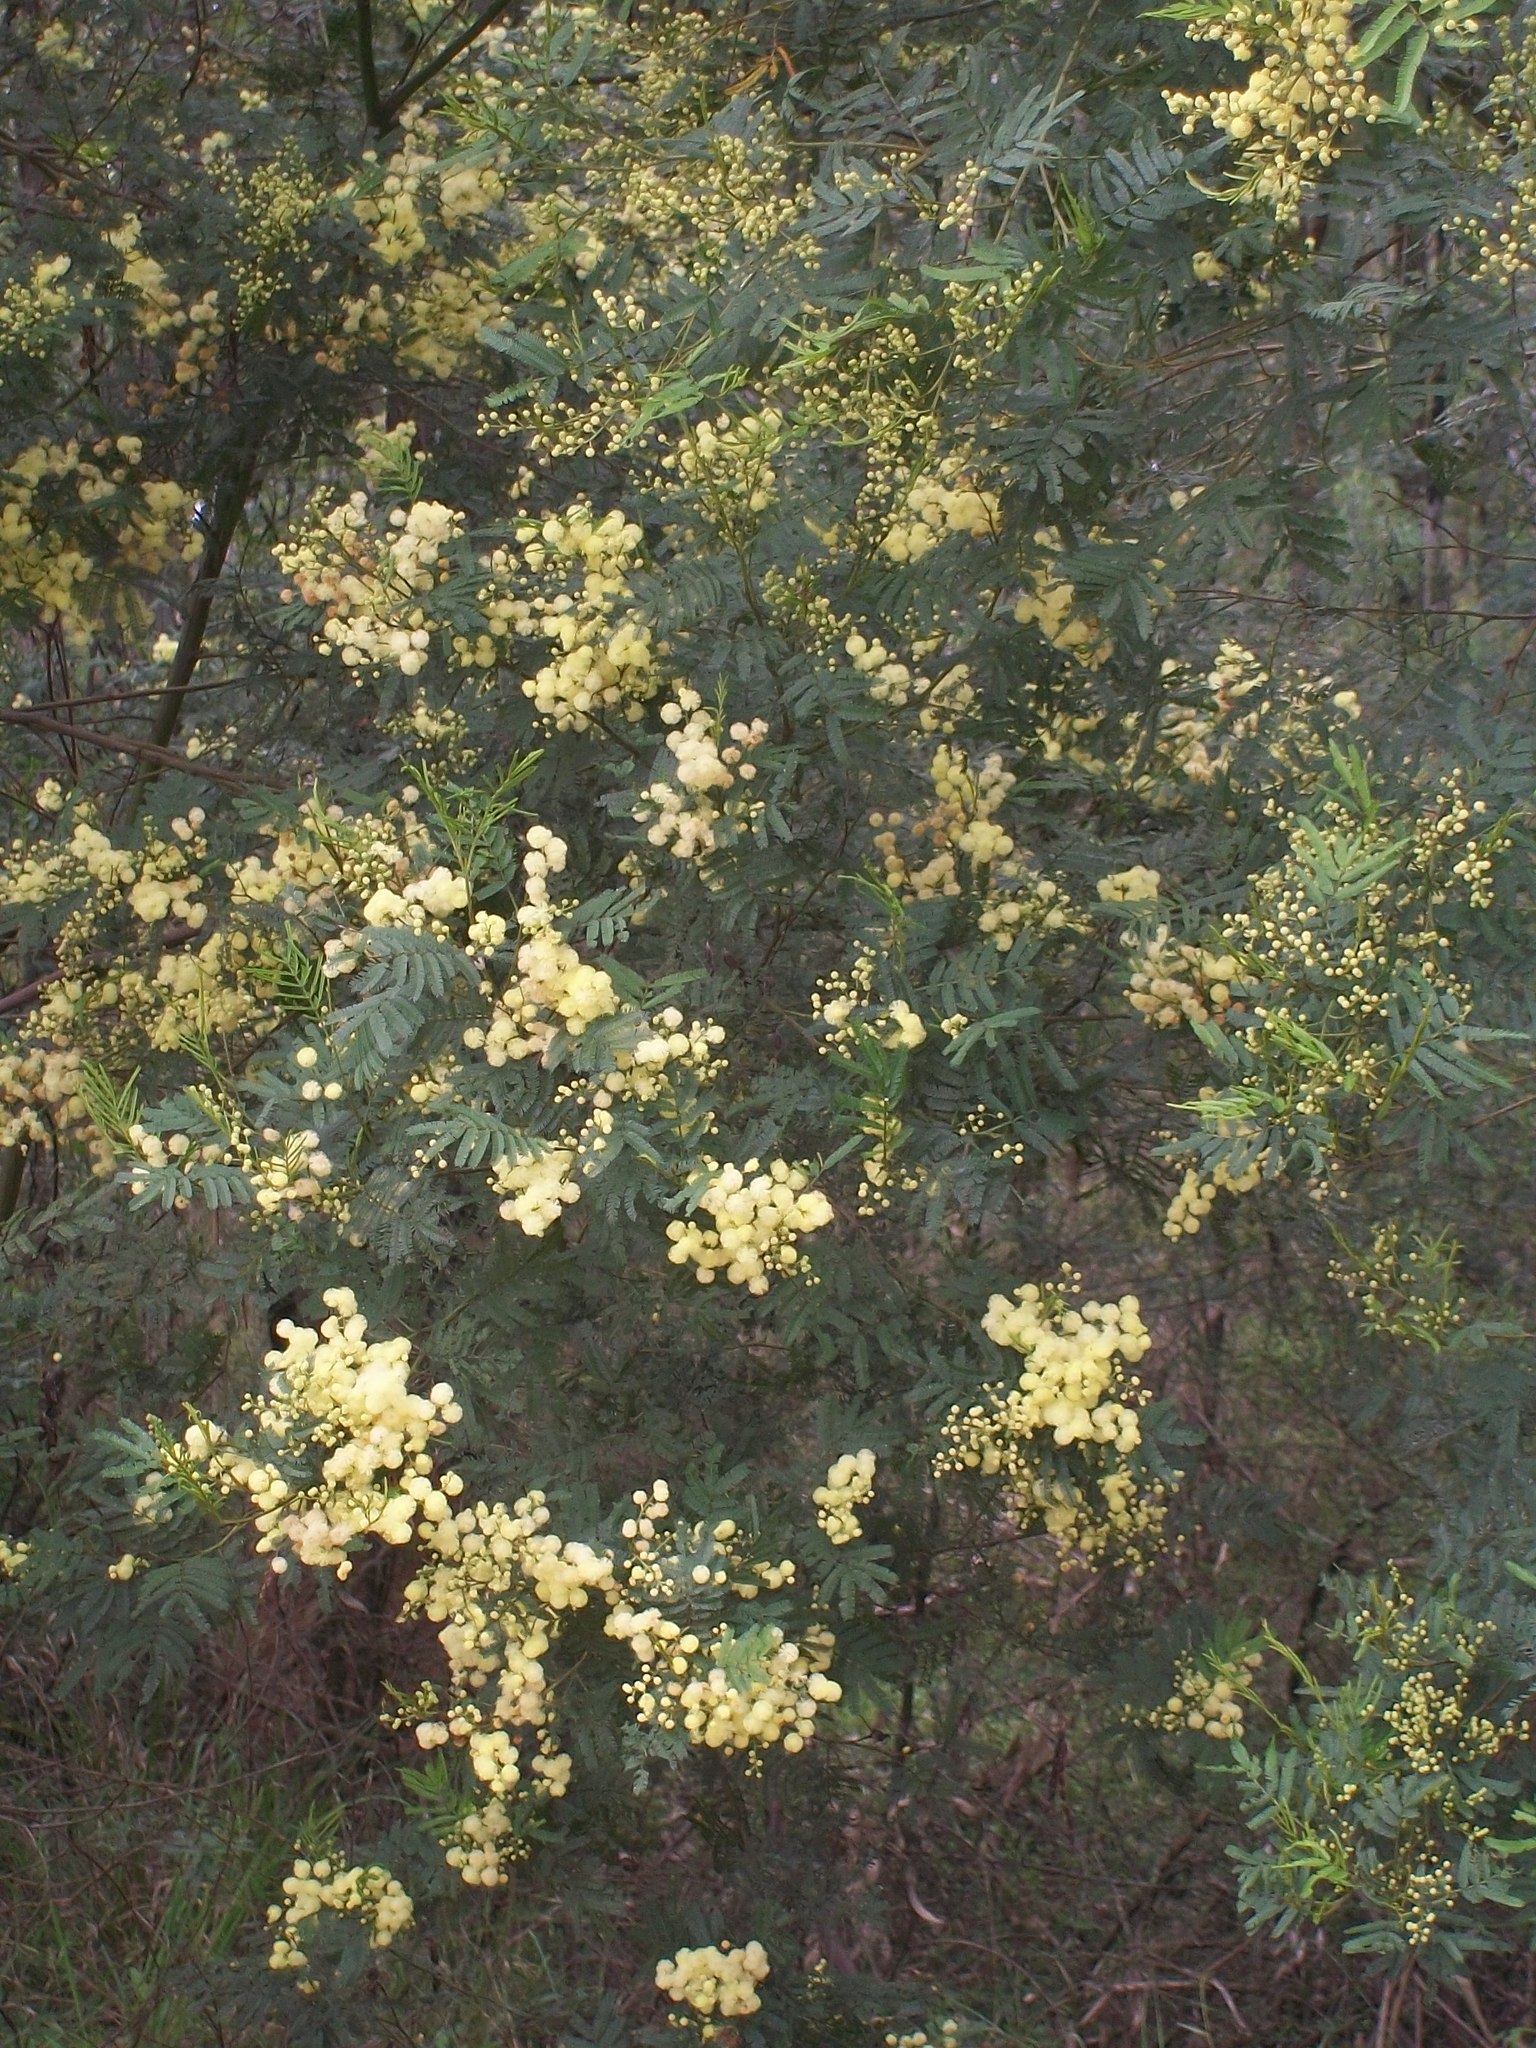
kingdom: Plantae
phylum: Tracheophyta
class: Magnoliopsida
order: Fabales
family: Fabaceae
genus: Acacia
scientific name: Acacia parramattensis
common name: Sydney green wattle
